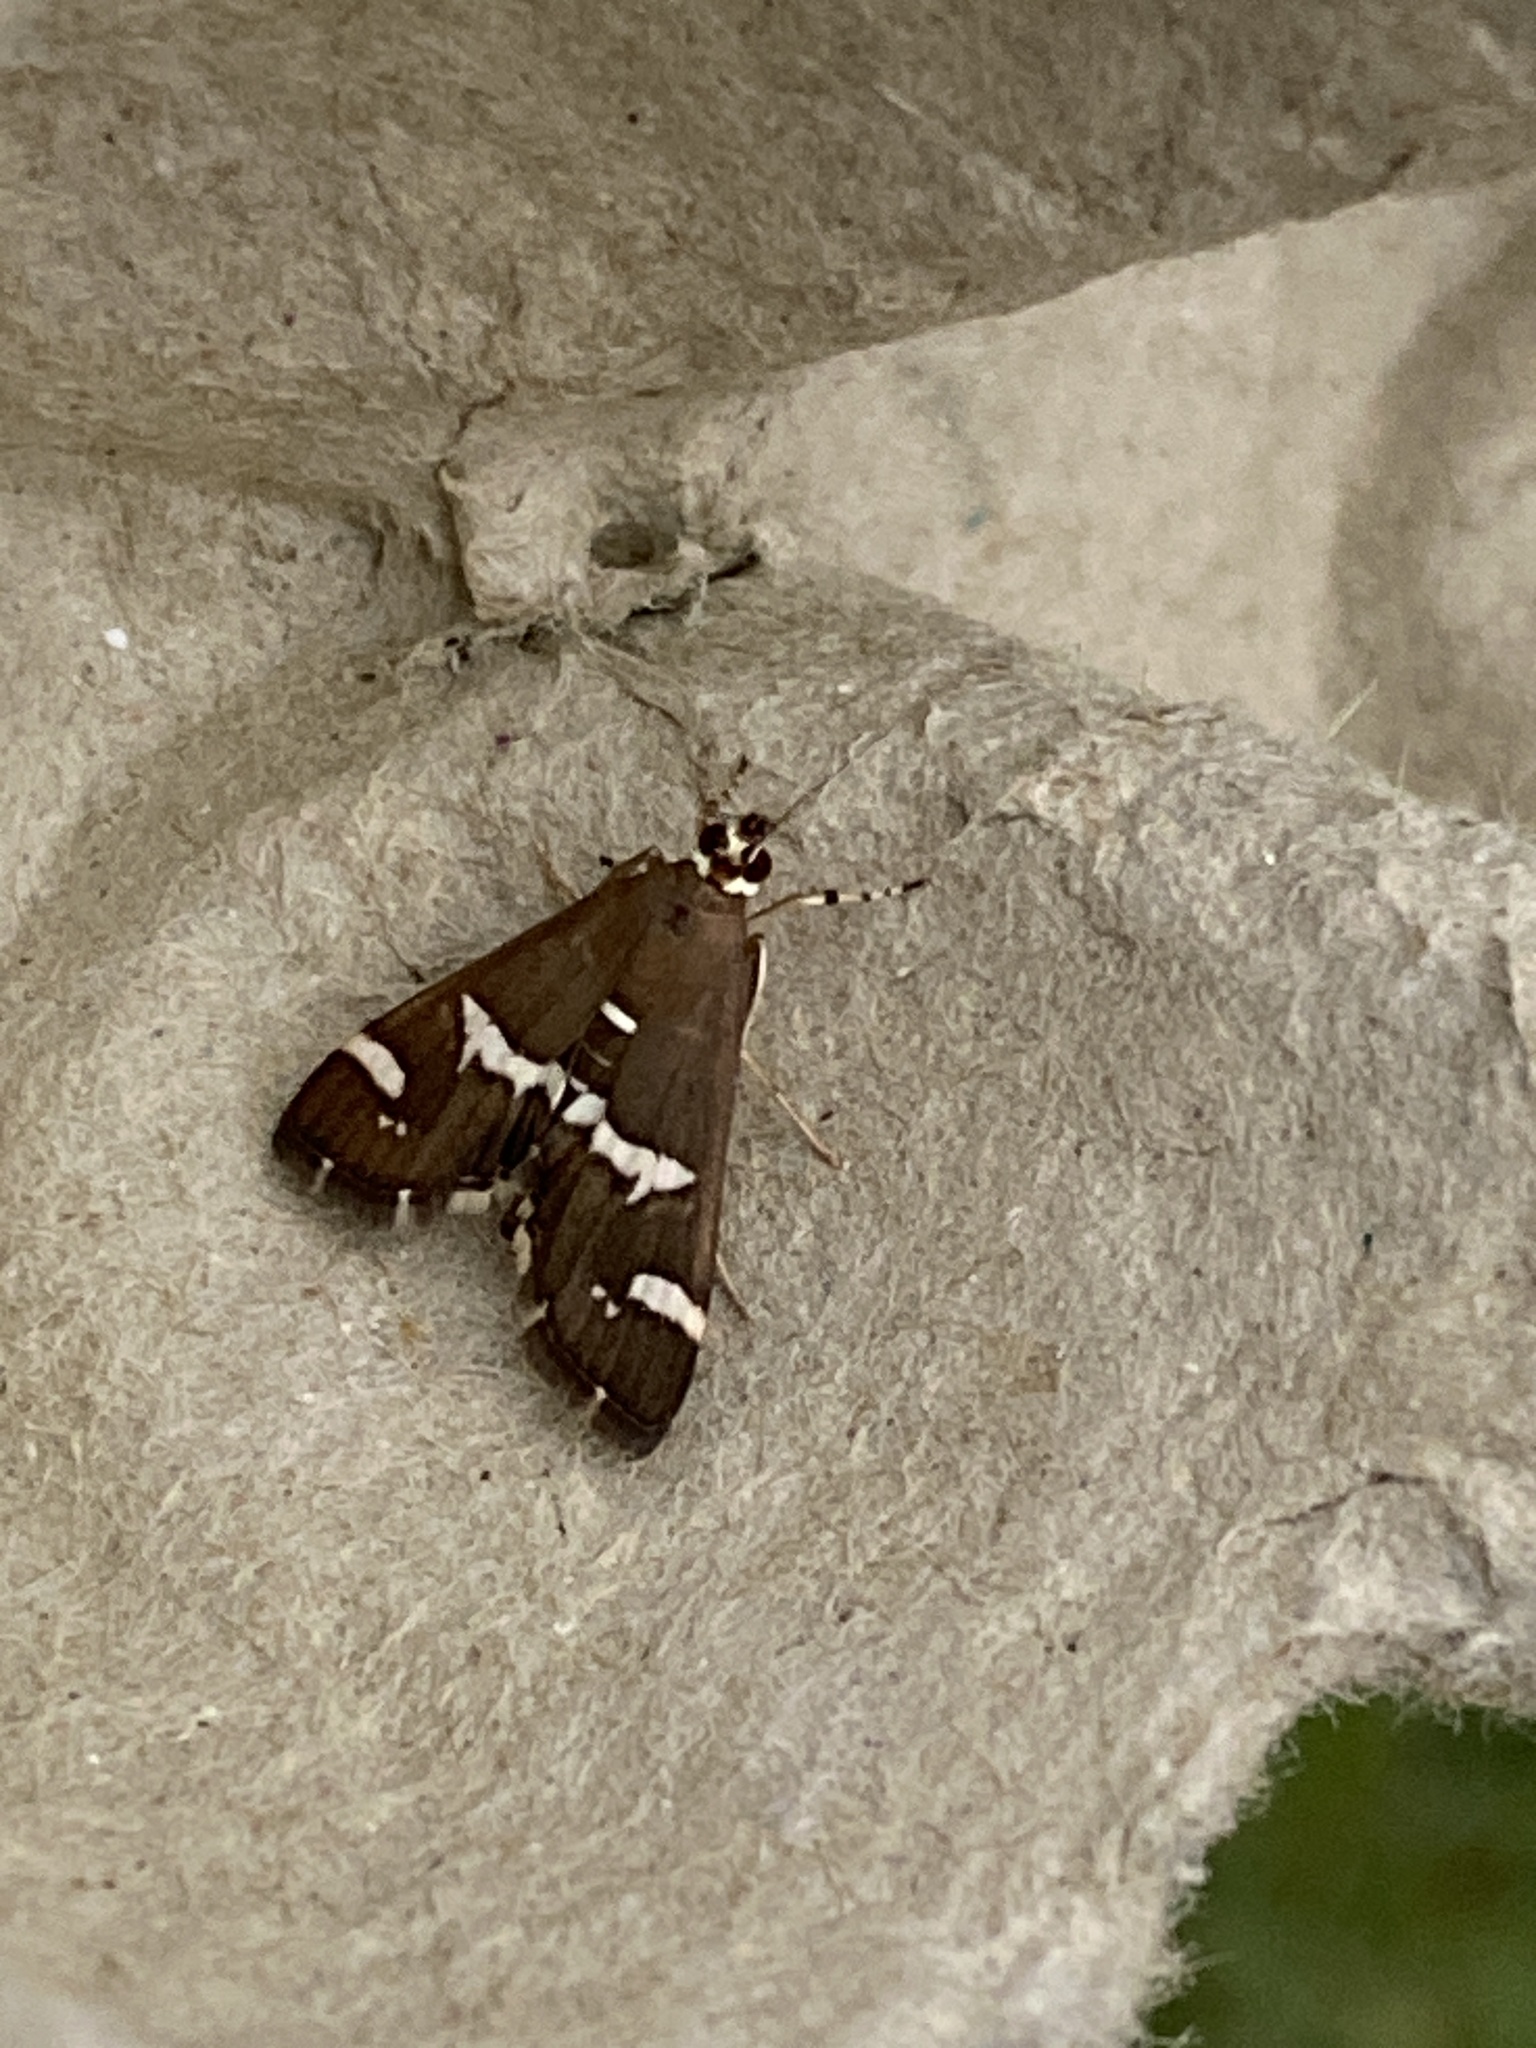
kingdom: Animalia
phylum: Arthropoda
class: Insecta
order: Lepidoptera
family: Crambidae
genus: Spoladea
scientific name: Spoladea recurvalis
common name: Beet webworm moth
